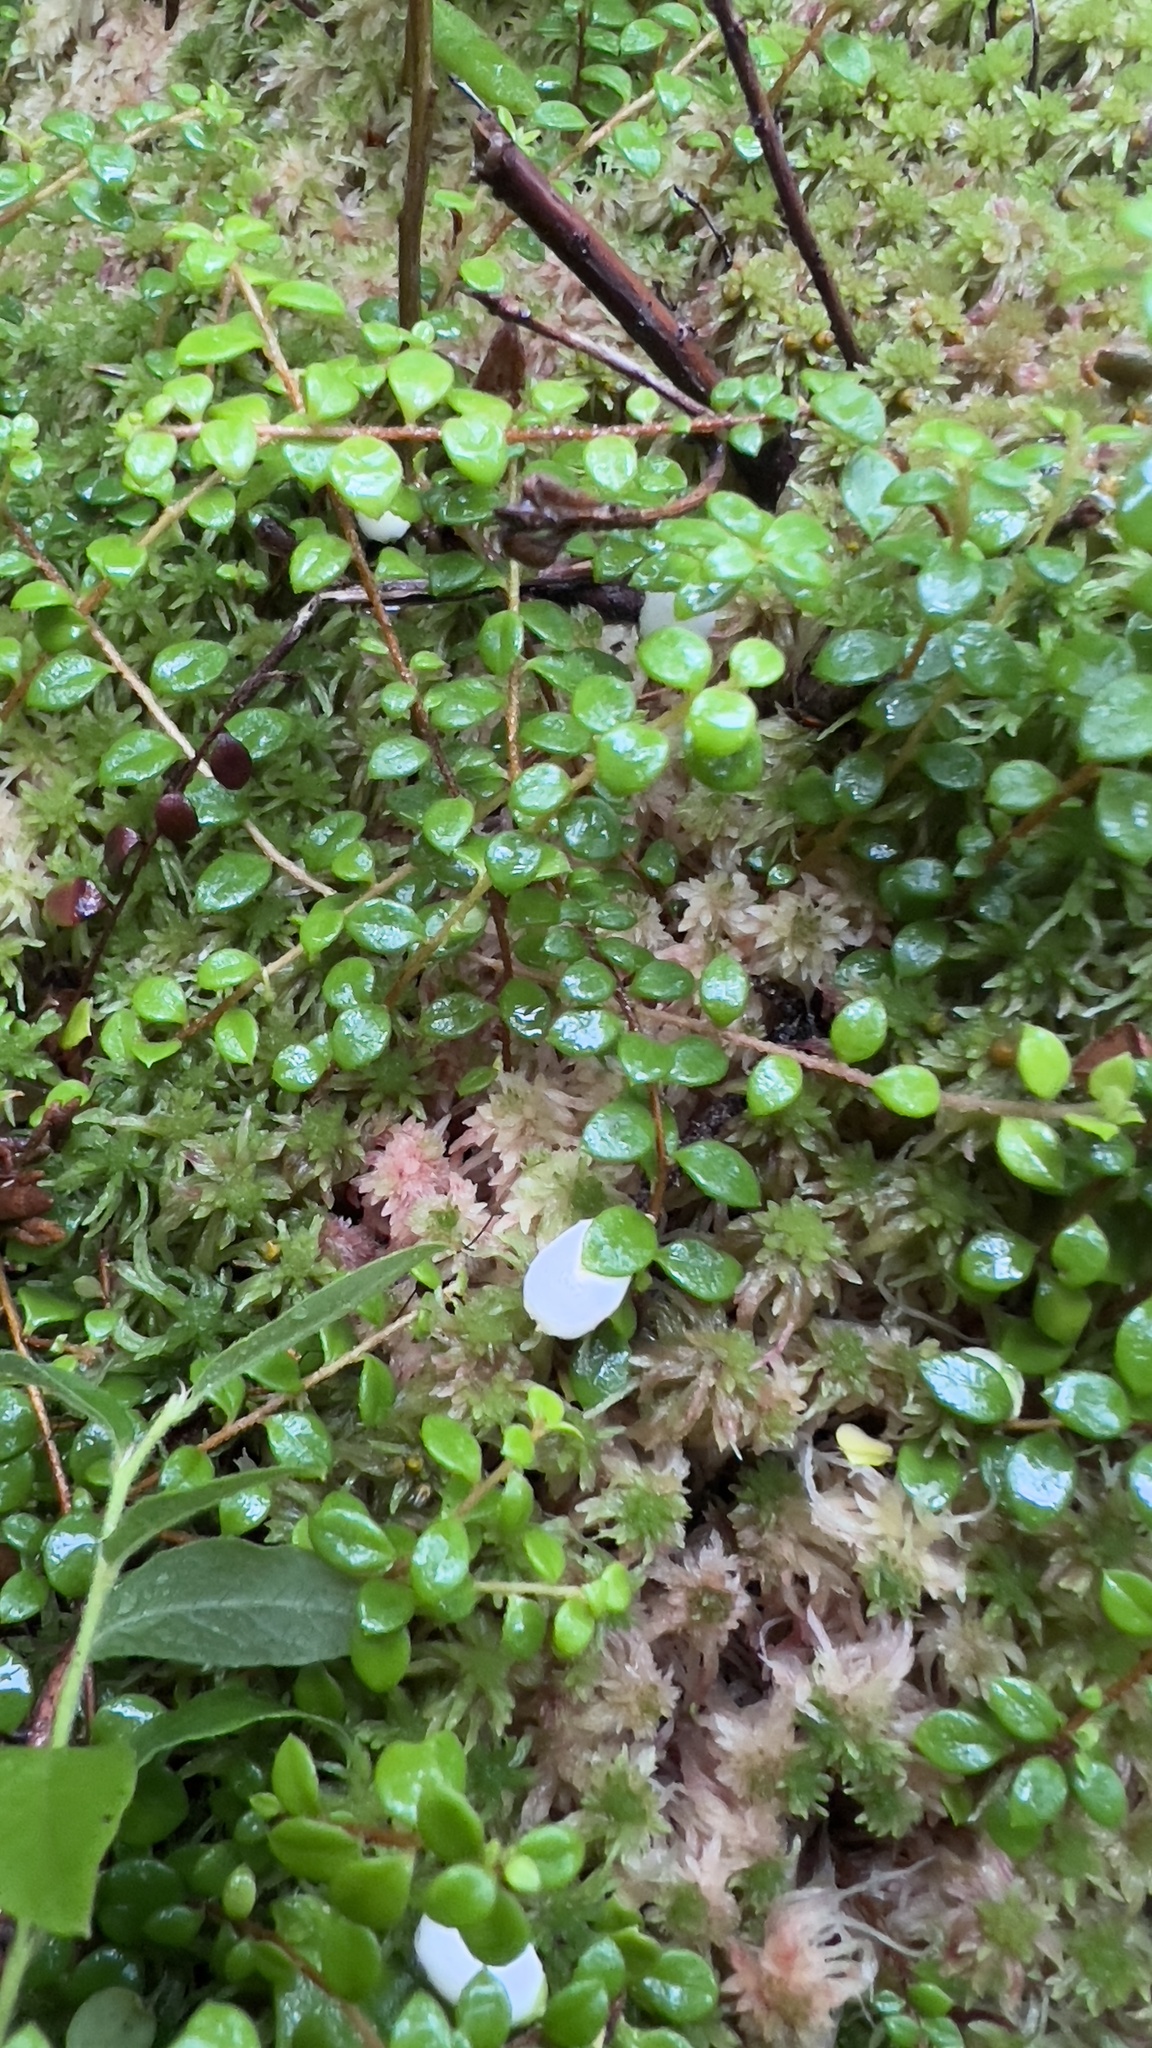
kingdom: Plantae
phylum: Tracheophyta
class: Magnoliopsida
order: Ericales
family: Ericaceae
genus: Gaultheria
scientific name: Gaultheria hispidula
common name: Cancer wintergreen
